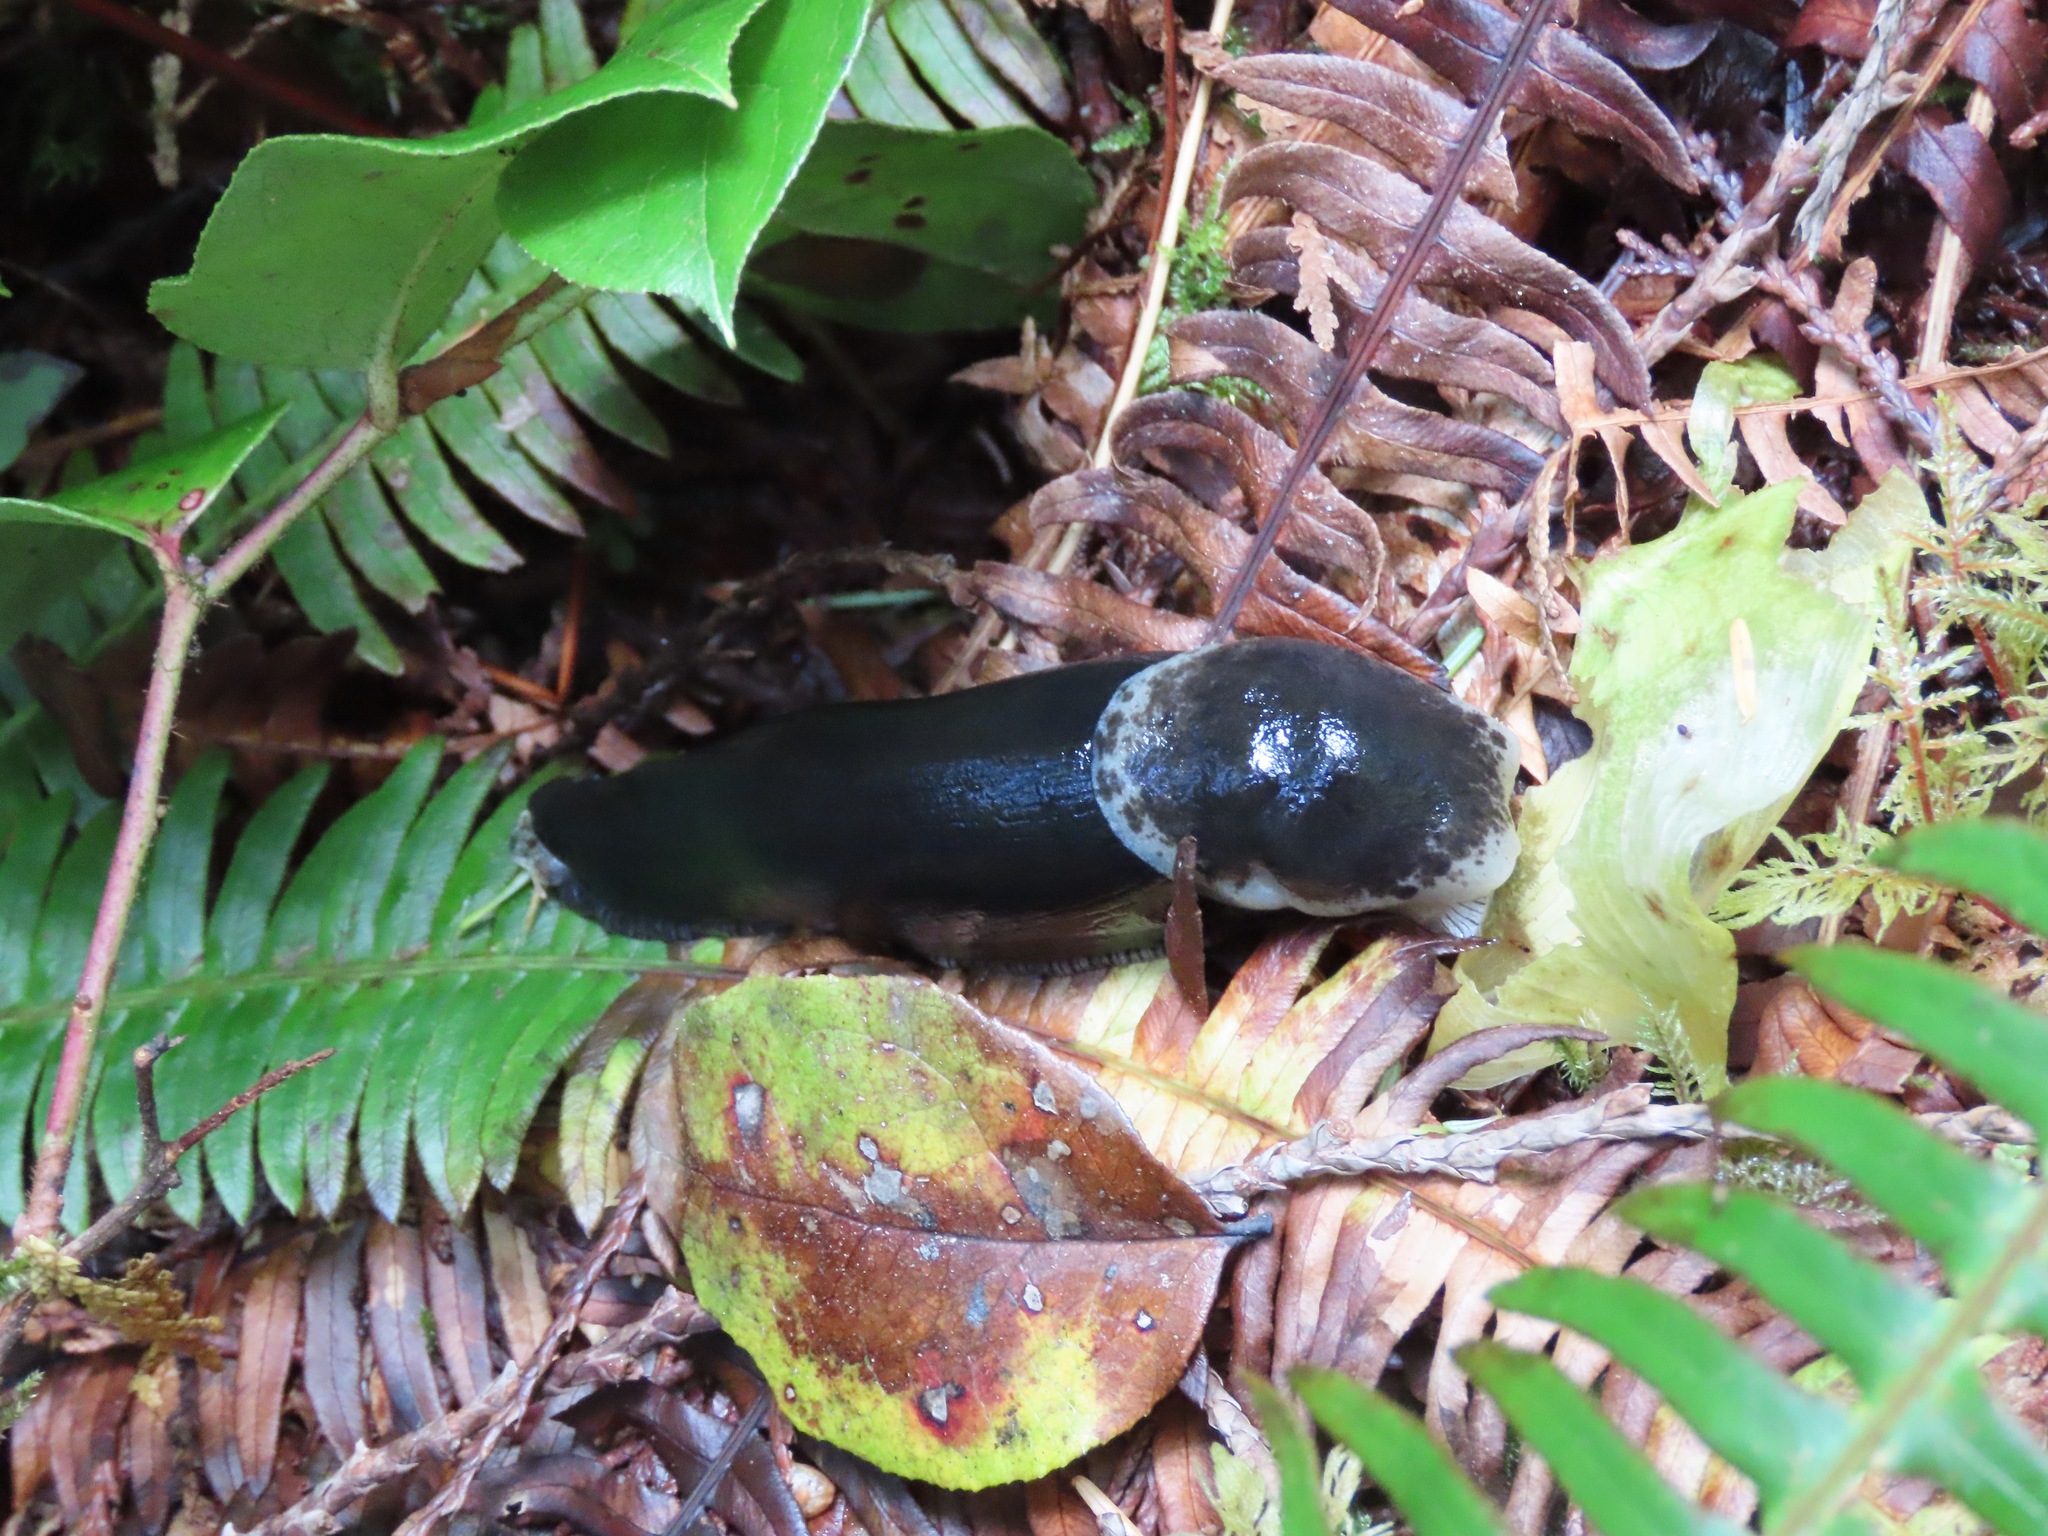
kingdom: Animalia
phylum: Mollusca
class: Gastropoda
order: Stylommatophora
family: Ariolimacidae
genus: Ariolimax
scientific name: Ariolimax columbianus
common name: Pacific banana slug
